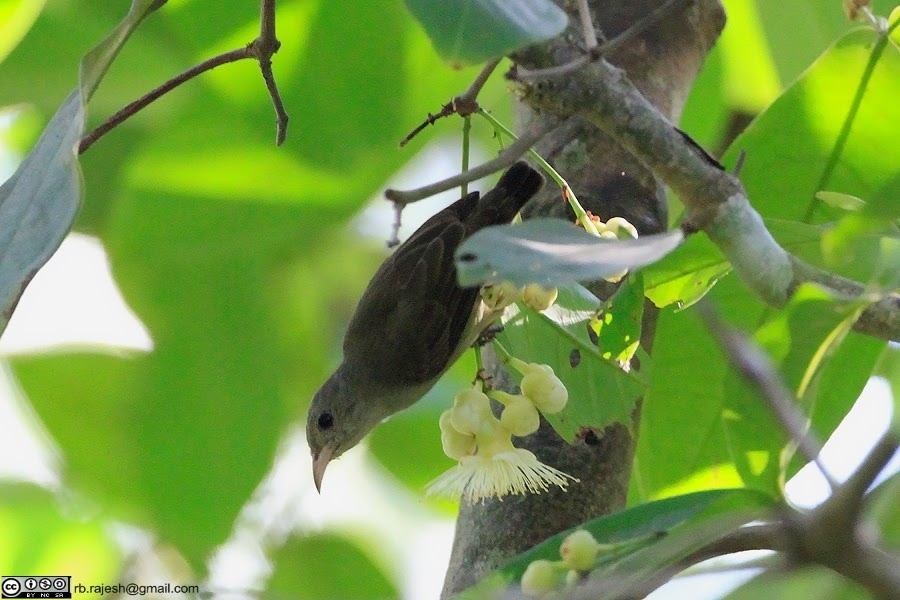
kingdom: Animalia
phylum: Chordata
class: Aves
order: Passeriformes
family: Dicaeidae
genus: Dicaeum
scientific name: Dicaeum erythrorhynchos
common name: Pale-billed flowerpecker
